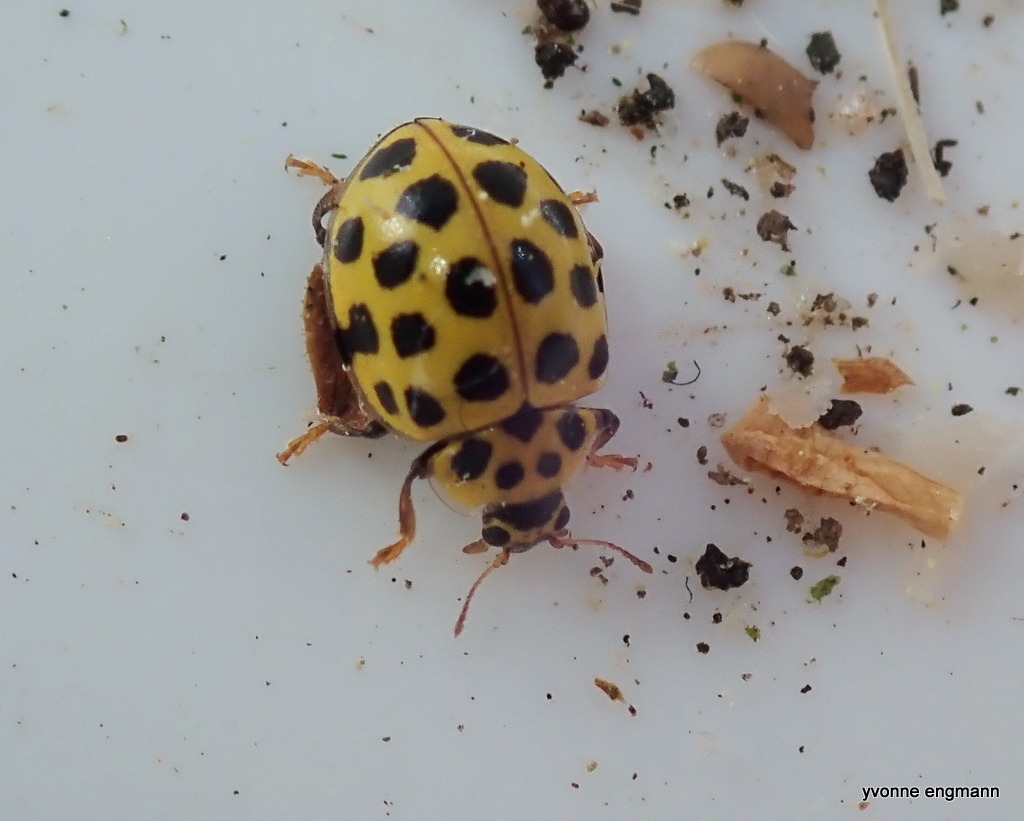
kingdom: Animalia
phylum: Arthropoda
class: Insecta
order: Coleoptera
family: Coccinellidae
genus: Psyllobora
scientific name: Psyllobora vigintiduopunctata
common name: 22-spot ladybird
